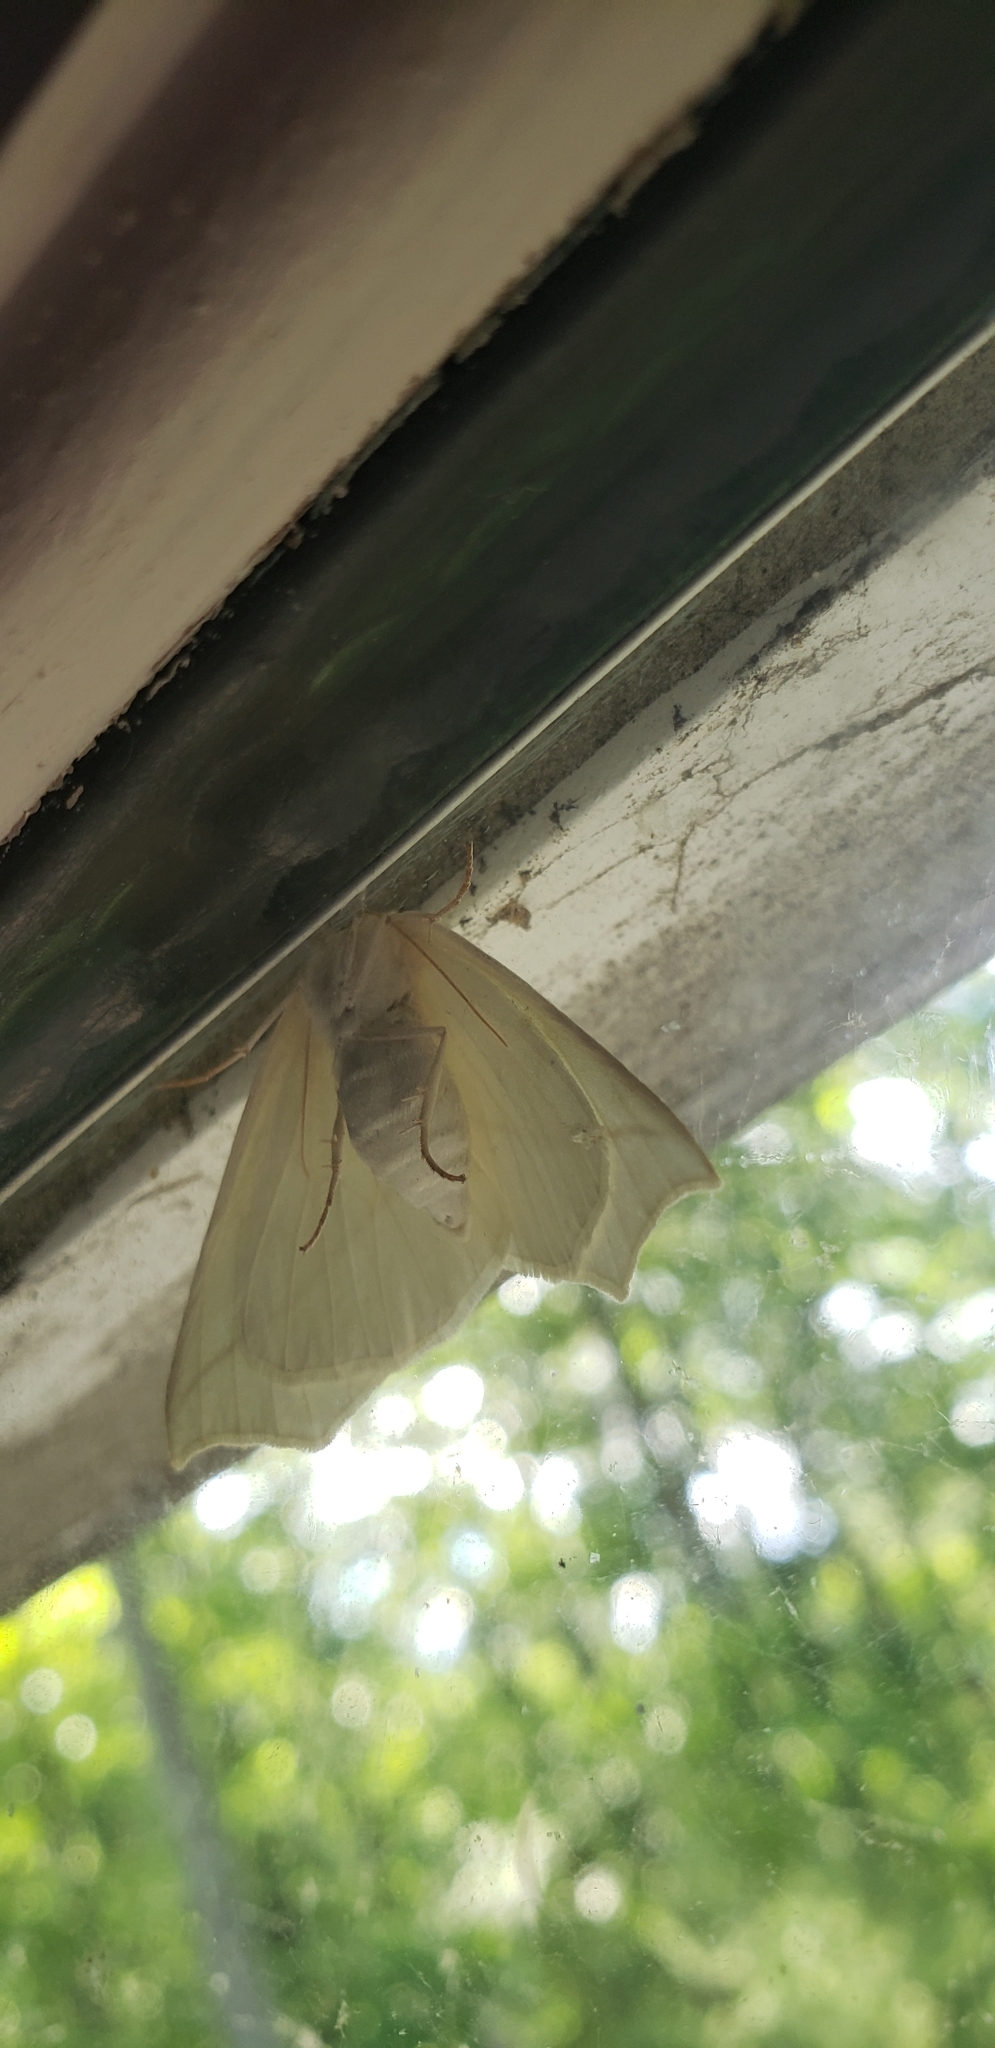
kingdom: Animalia
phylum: Arthropoda
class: Insecta
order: Lepidoptera
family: Geometridae
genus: Tetracis
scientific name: Tetracis cachexiata
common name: White slant-line
